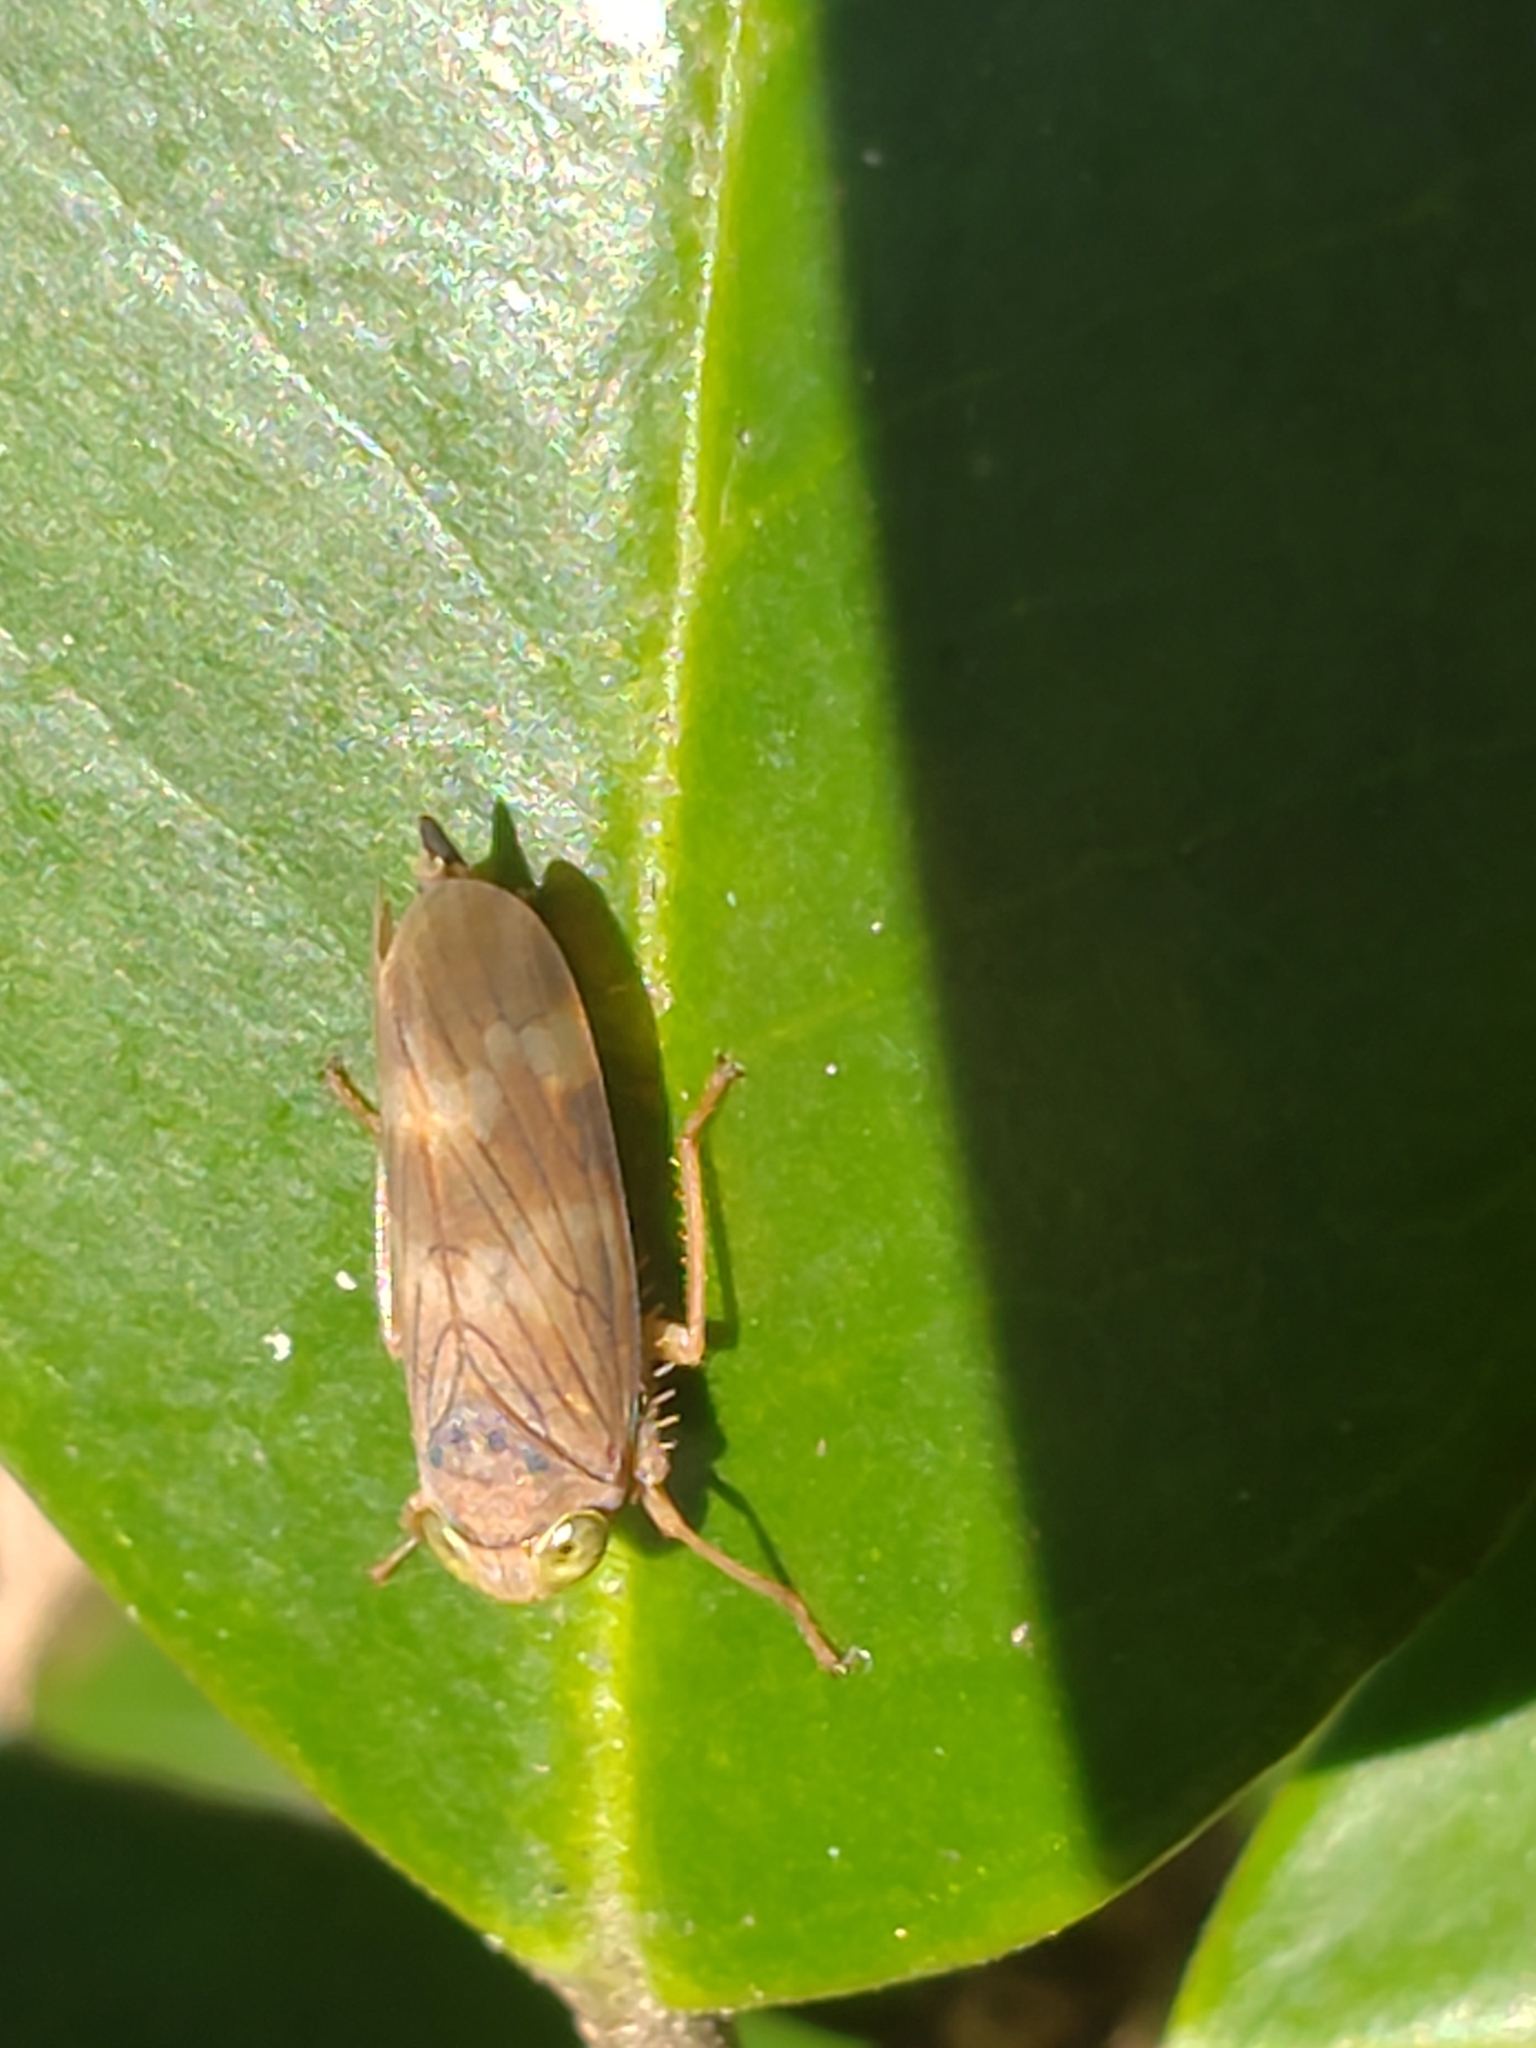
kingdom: Animalia
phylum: Arthropoda
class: Insecta
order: Hemiptera
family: Cicadellidae
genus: Jikradia
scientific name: Jikradia olitoria
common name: Coppery leafhopper
